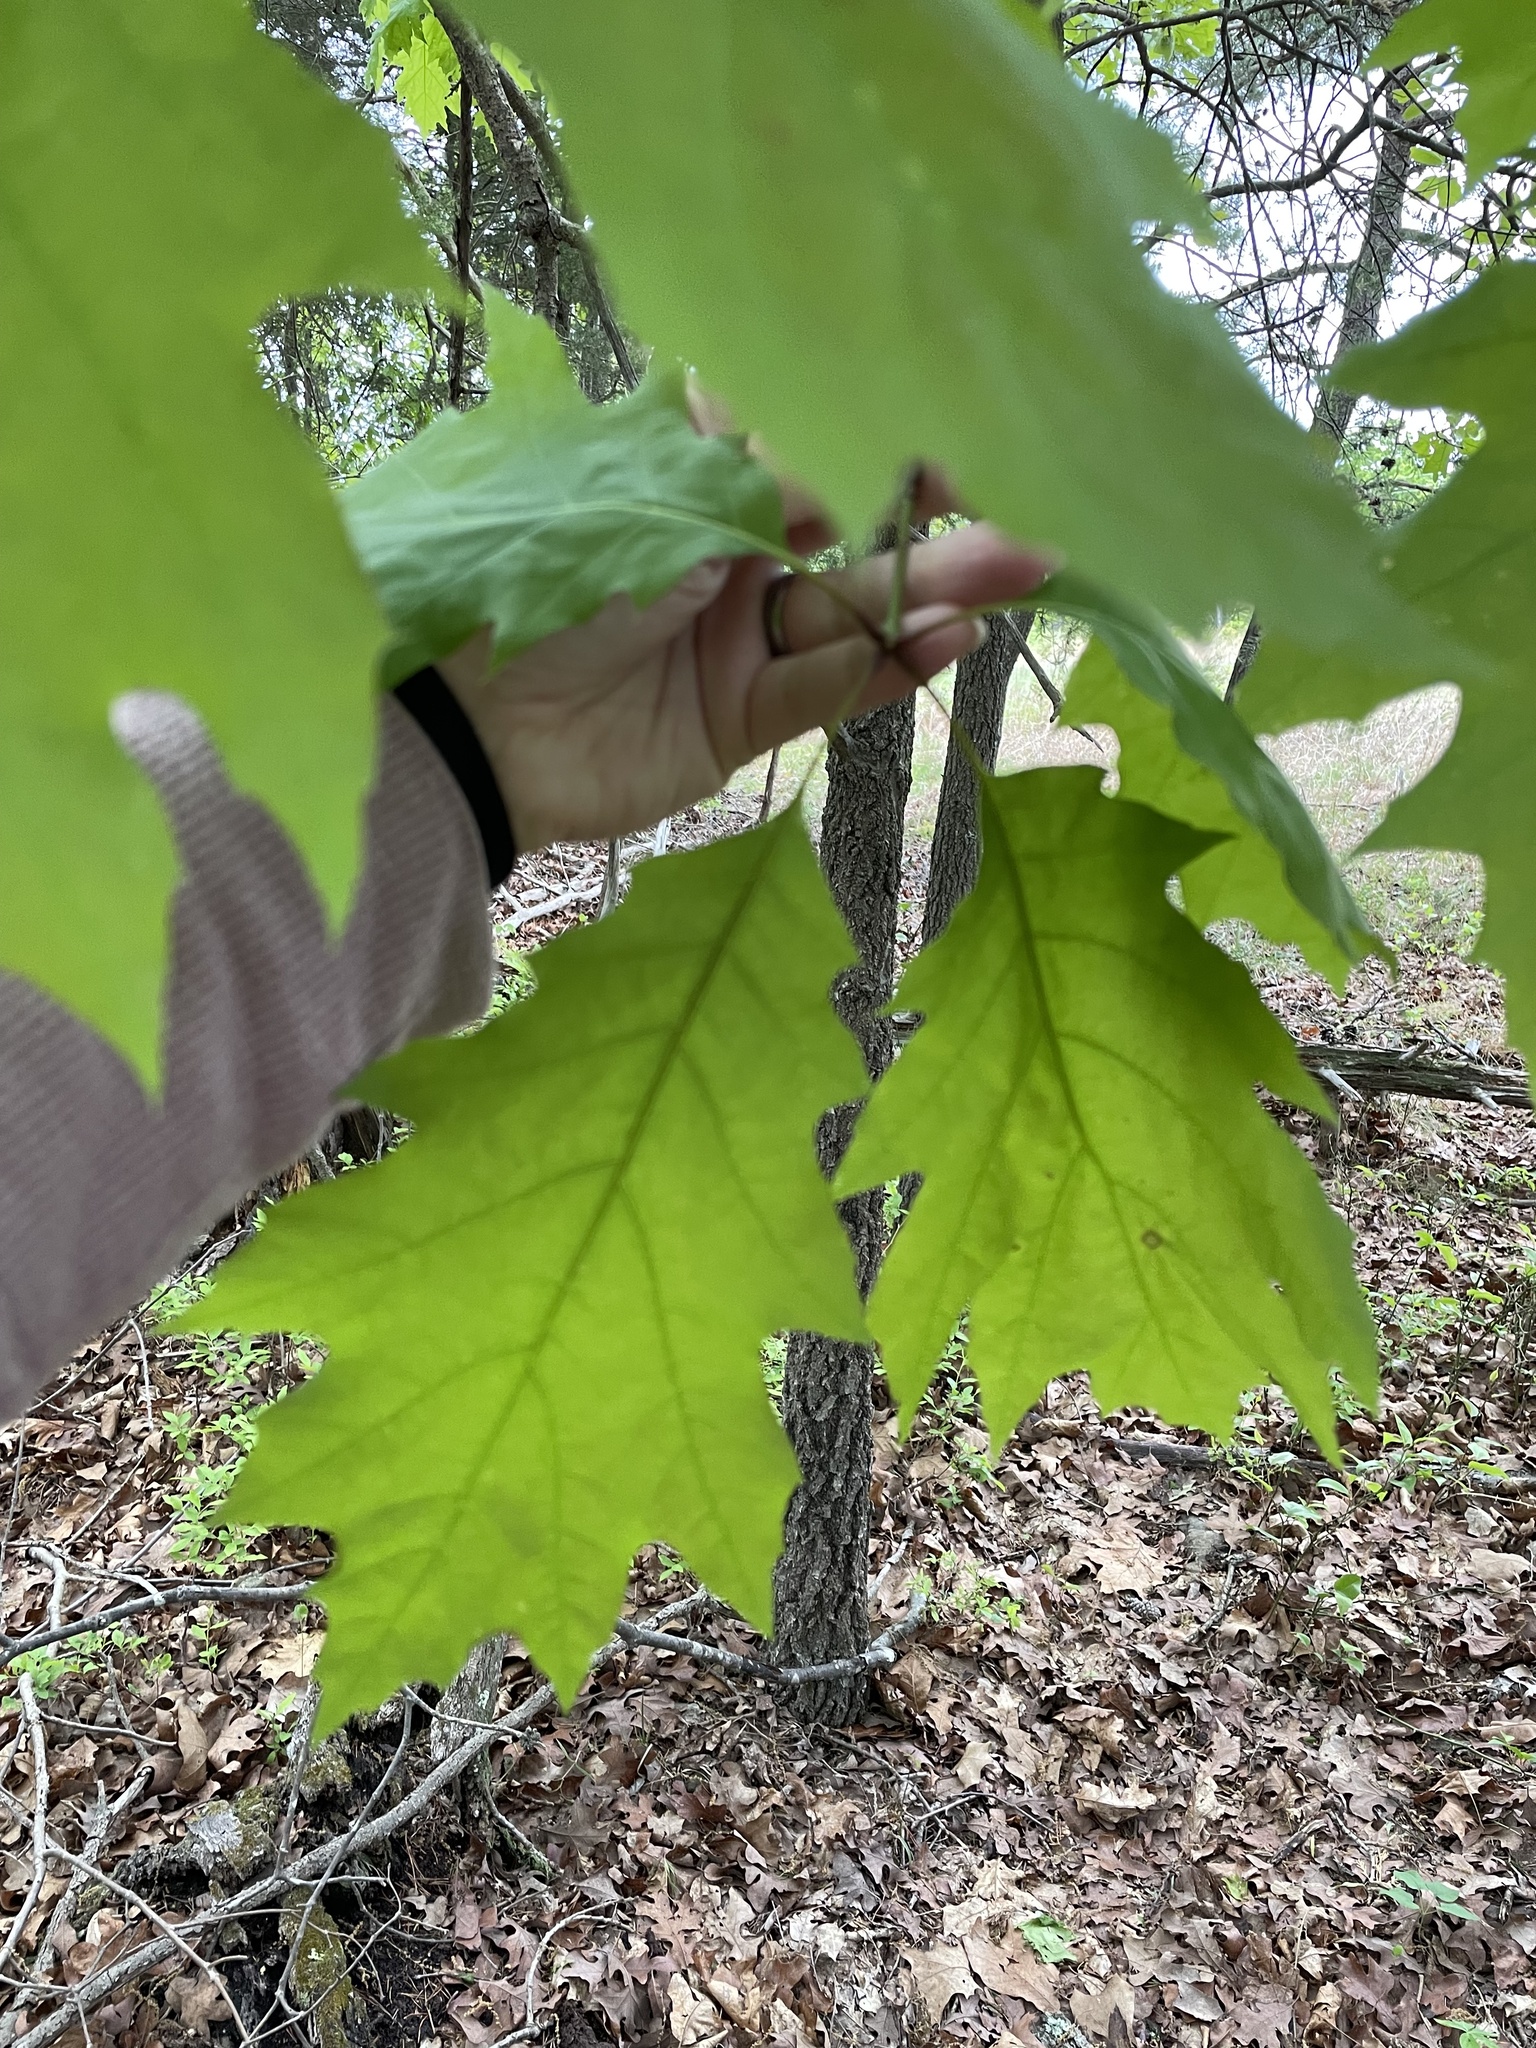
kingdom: Plantae
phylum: Tracheophyta
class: Magnoliopsida
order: Fagales
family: Fagaceae
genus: Quercus
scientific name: Quercus rubra
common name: Red oak
